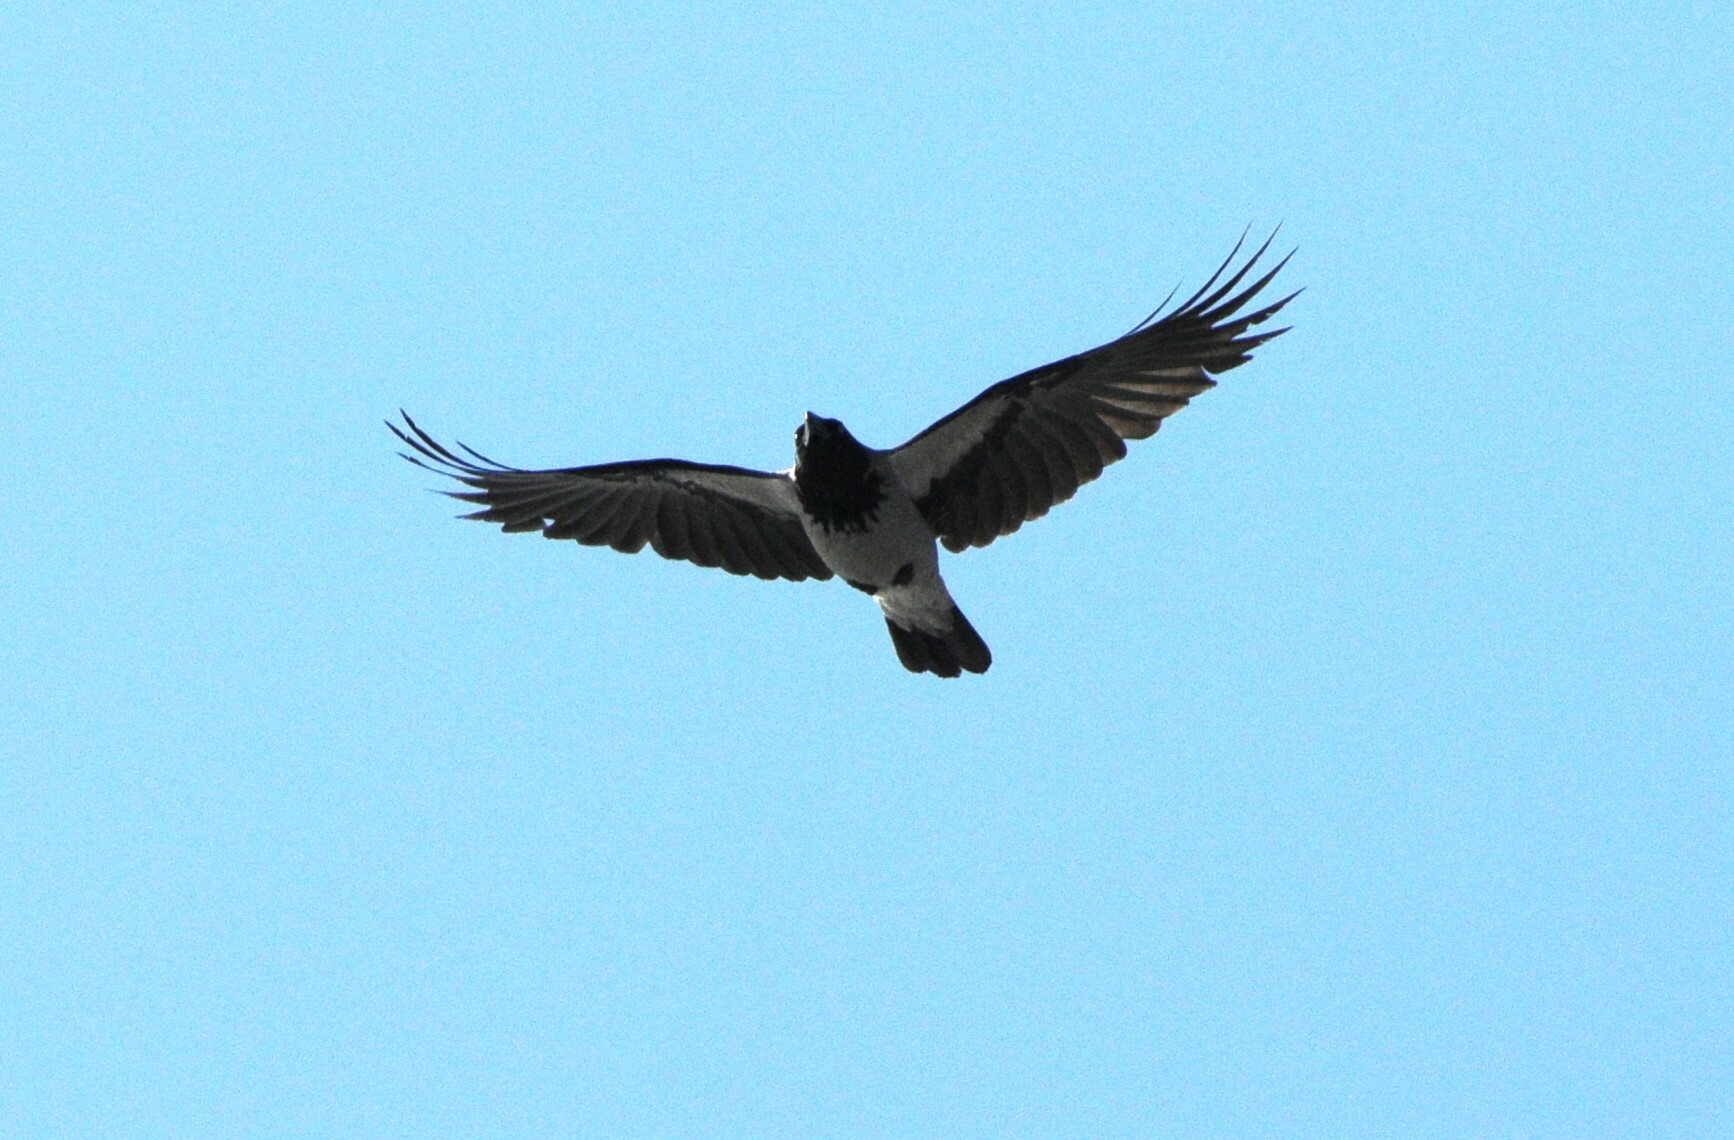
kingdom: Animalia
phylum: Chordata
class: Aves
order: Passeriformes
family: Corvidae
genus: Corvus
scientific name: Corvus cornix
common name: Hooded crow
